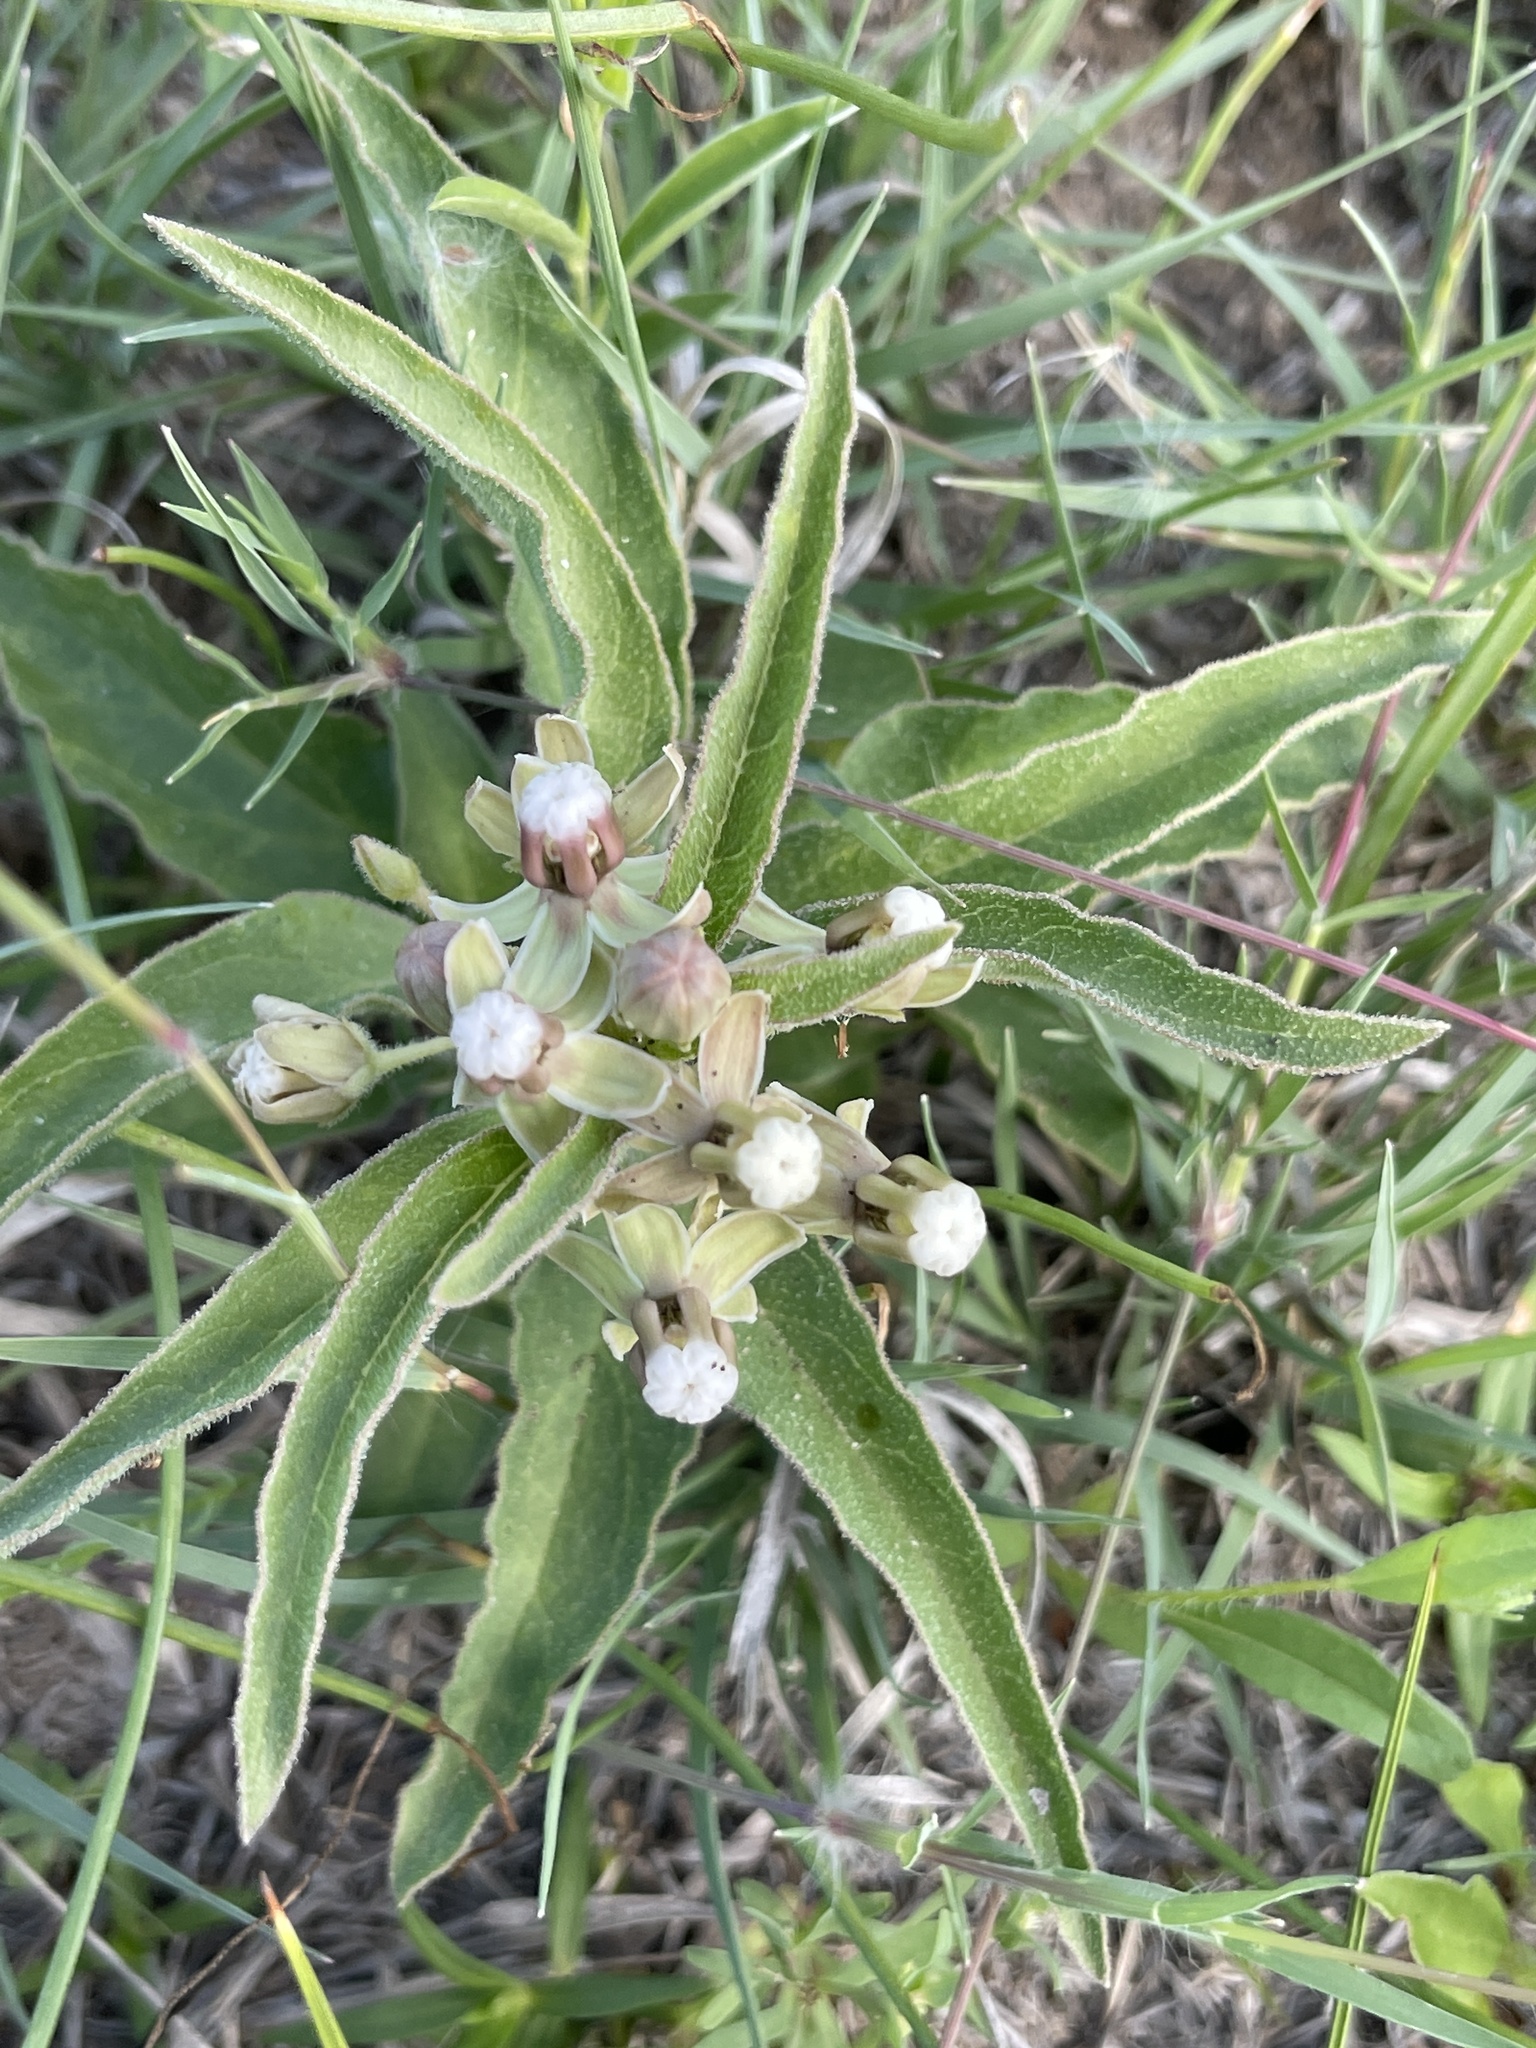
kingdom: Plantae
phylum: Tracheophyta
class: Magnoliopsida
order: Gentianales
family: Apocynaceae
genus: Asclepias
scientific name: Asclepias emoryi
